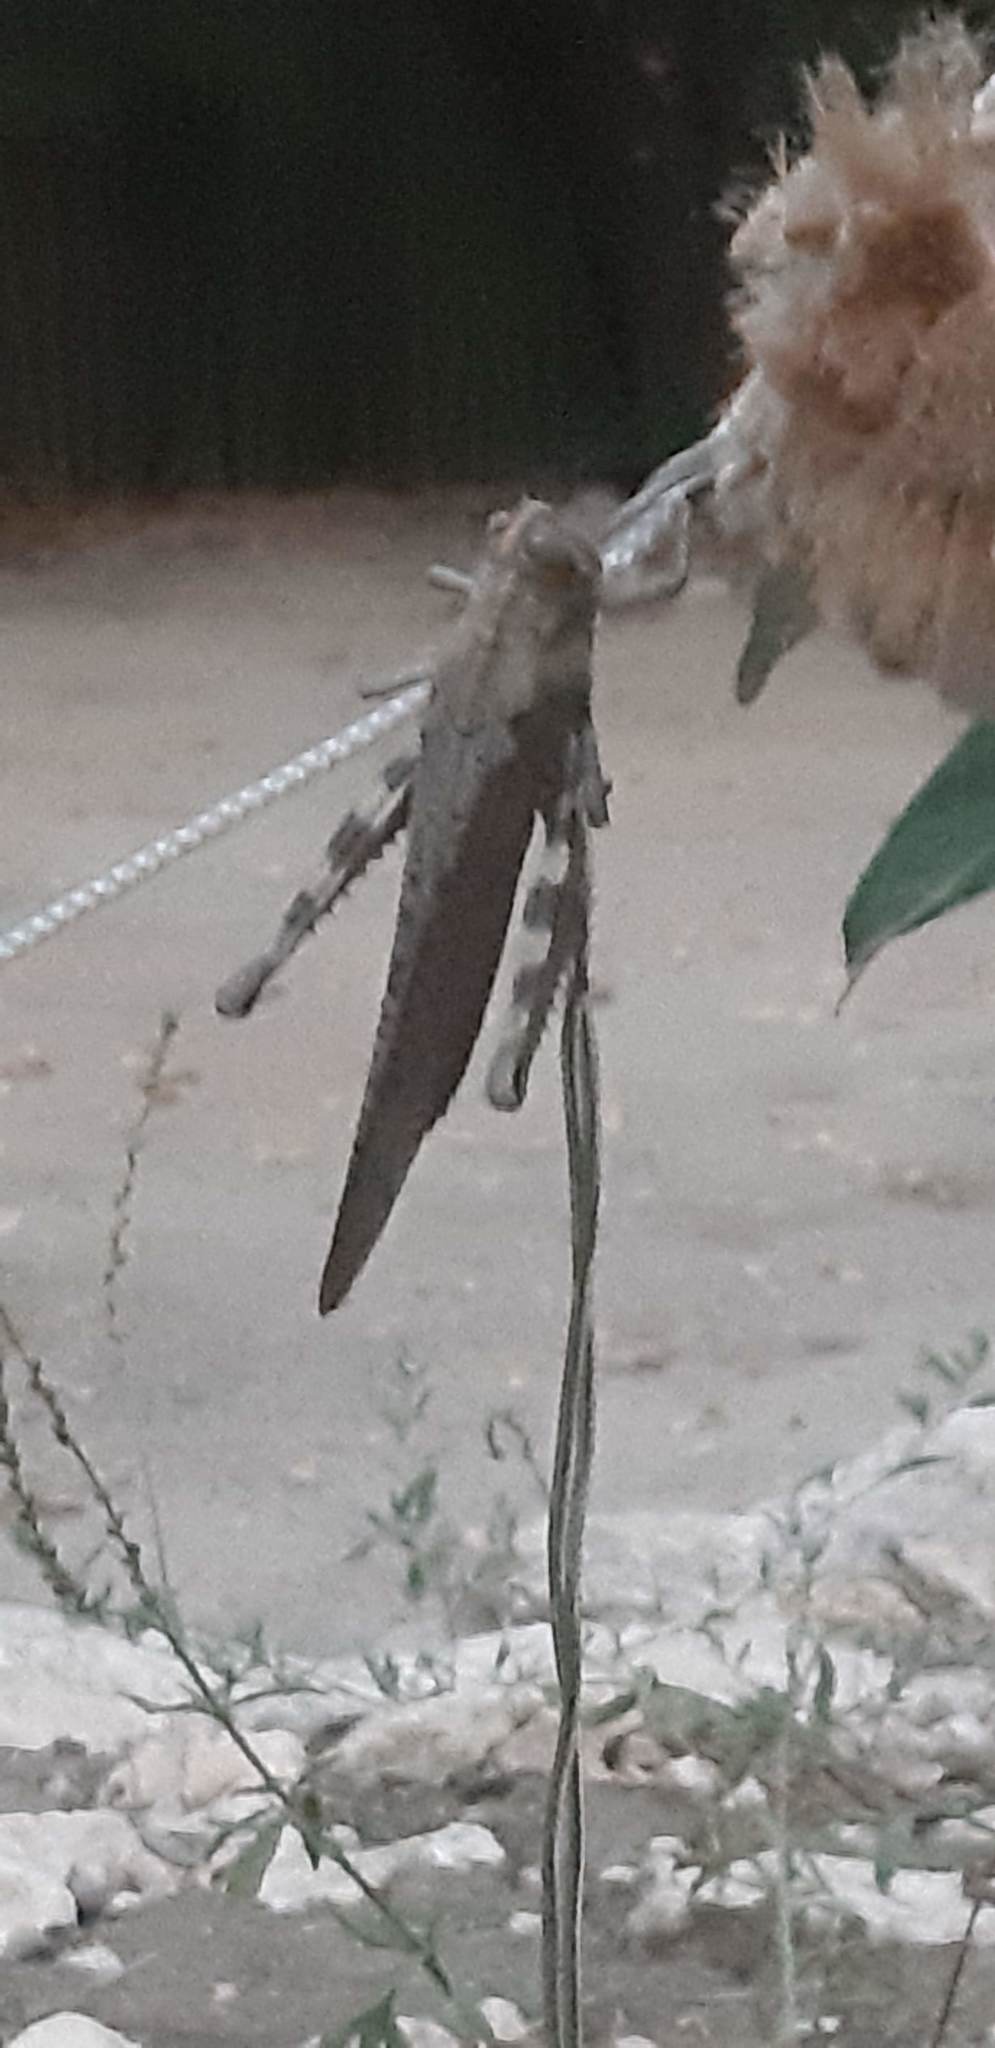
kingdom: Animalia
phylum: Arthropoda
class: Insecta
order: Orthoptera
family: Acrididae
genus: Anacridium
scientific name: Anacridium aegyptium
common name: Egyptian grasshopper
